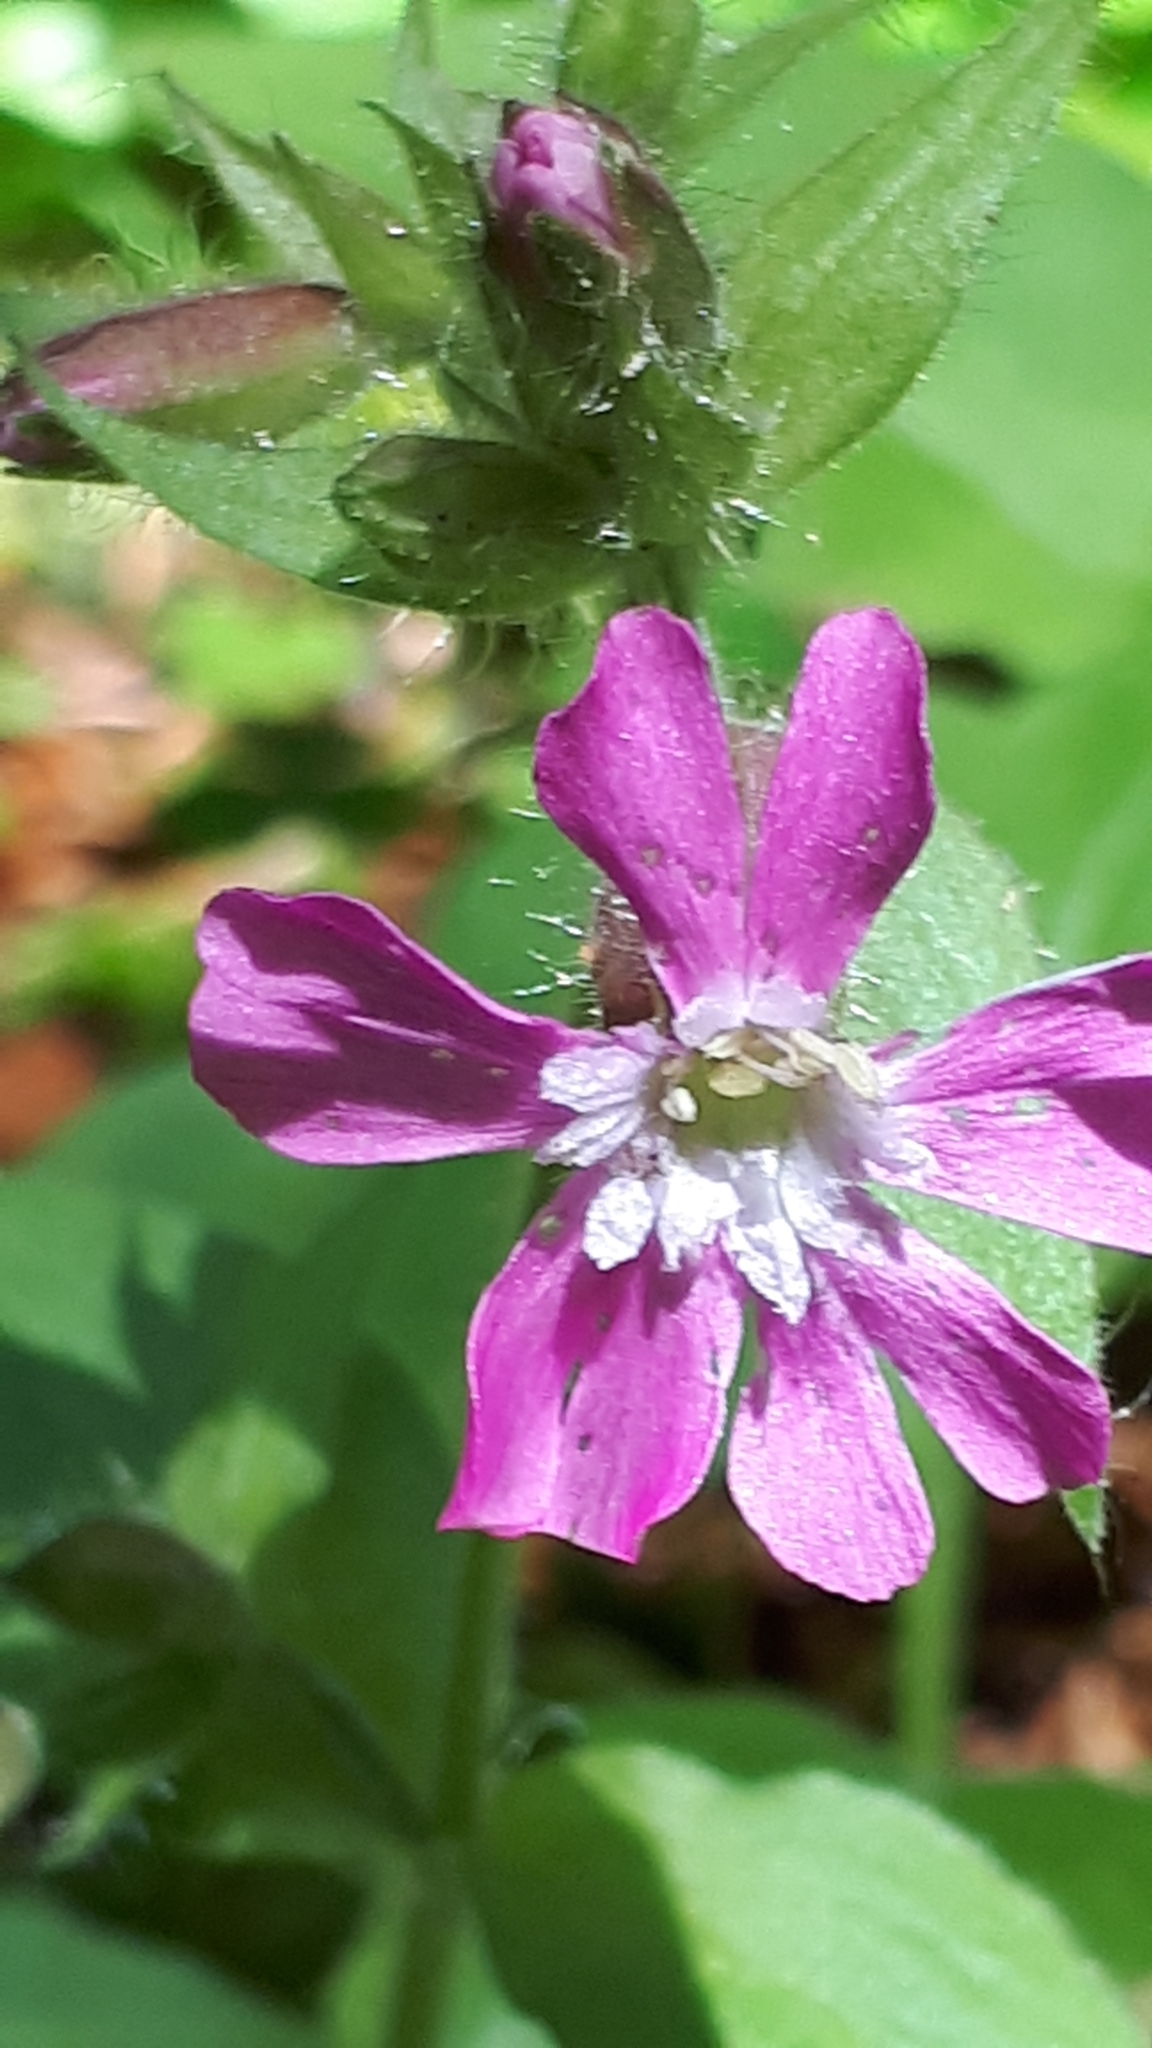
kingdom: Plantae
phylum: Tracheophyta
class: Magnoliopsida
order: Caryophyllales
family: Caryophyllaceae
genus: Silene
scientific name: Silene dioica
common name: Red campion
